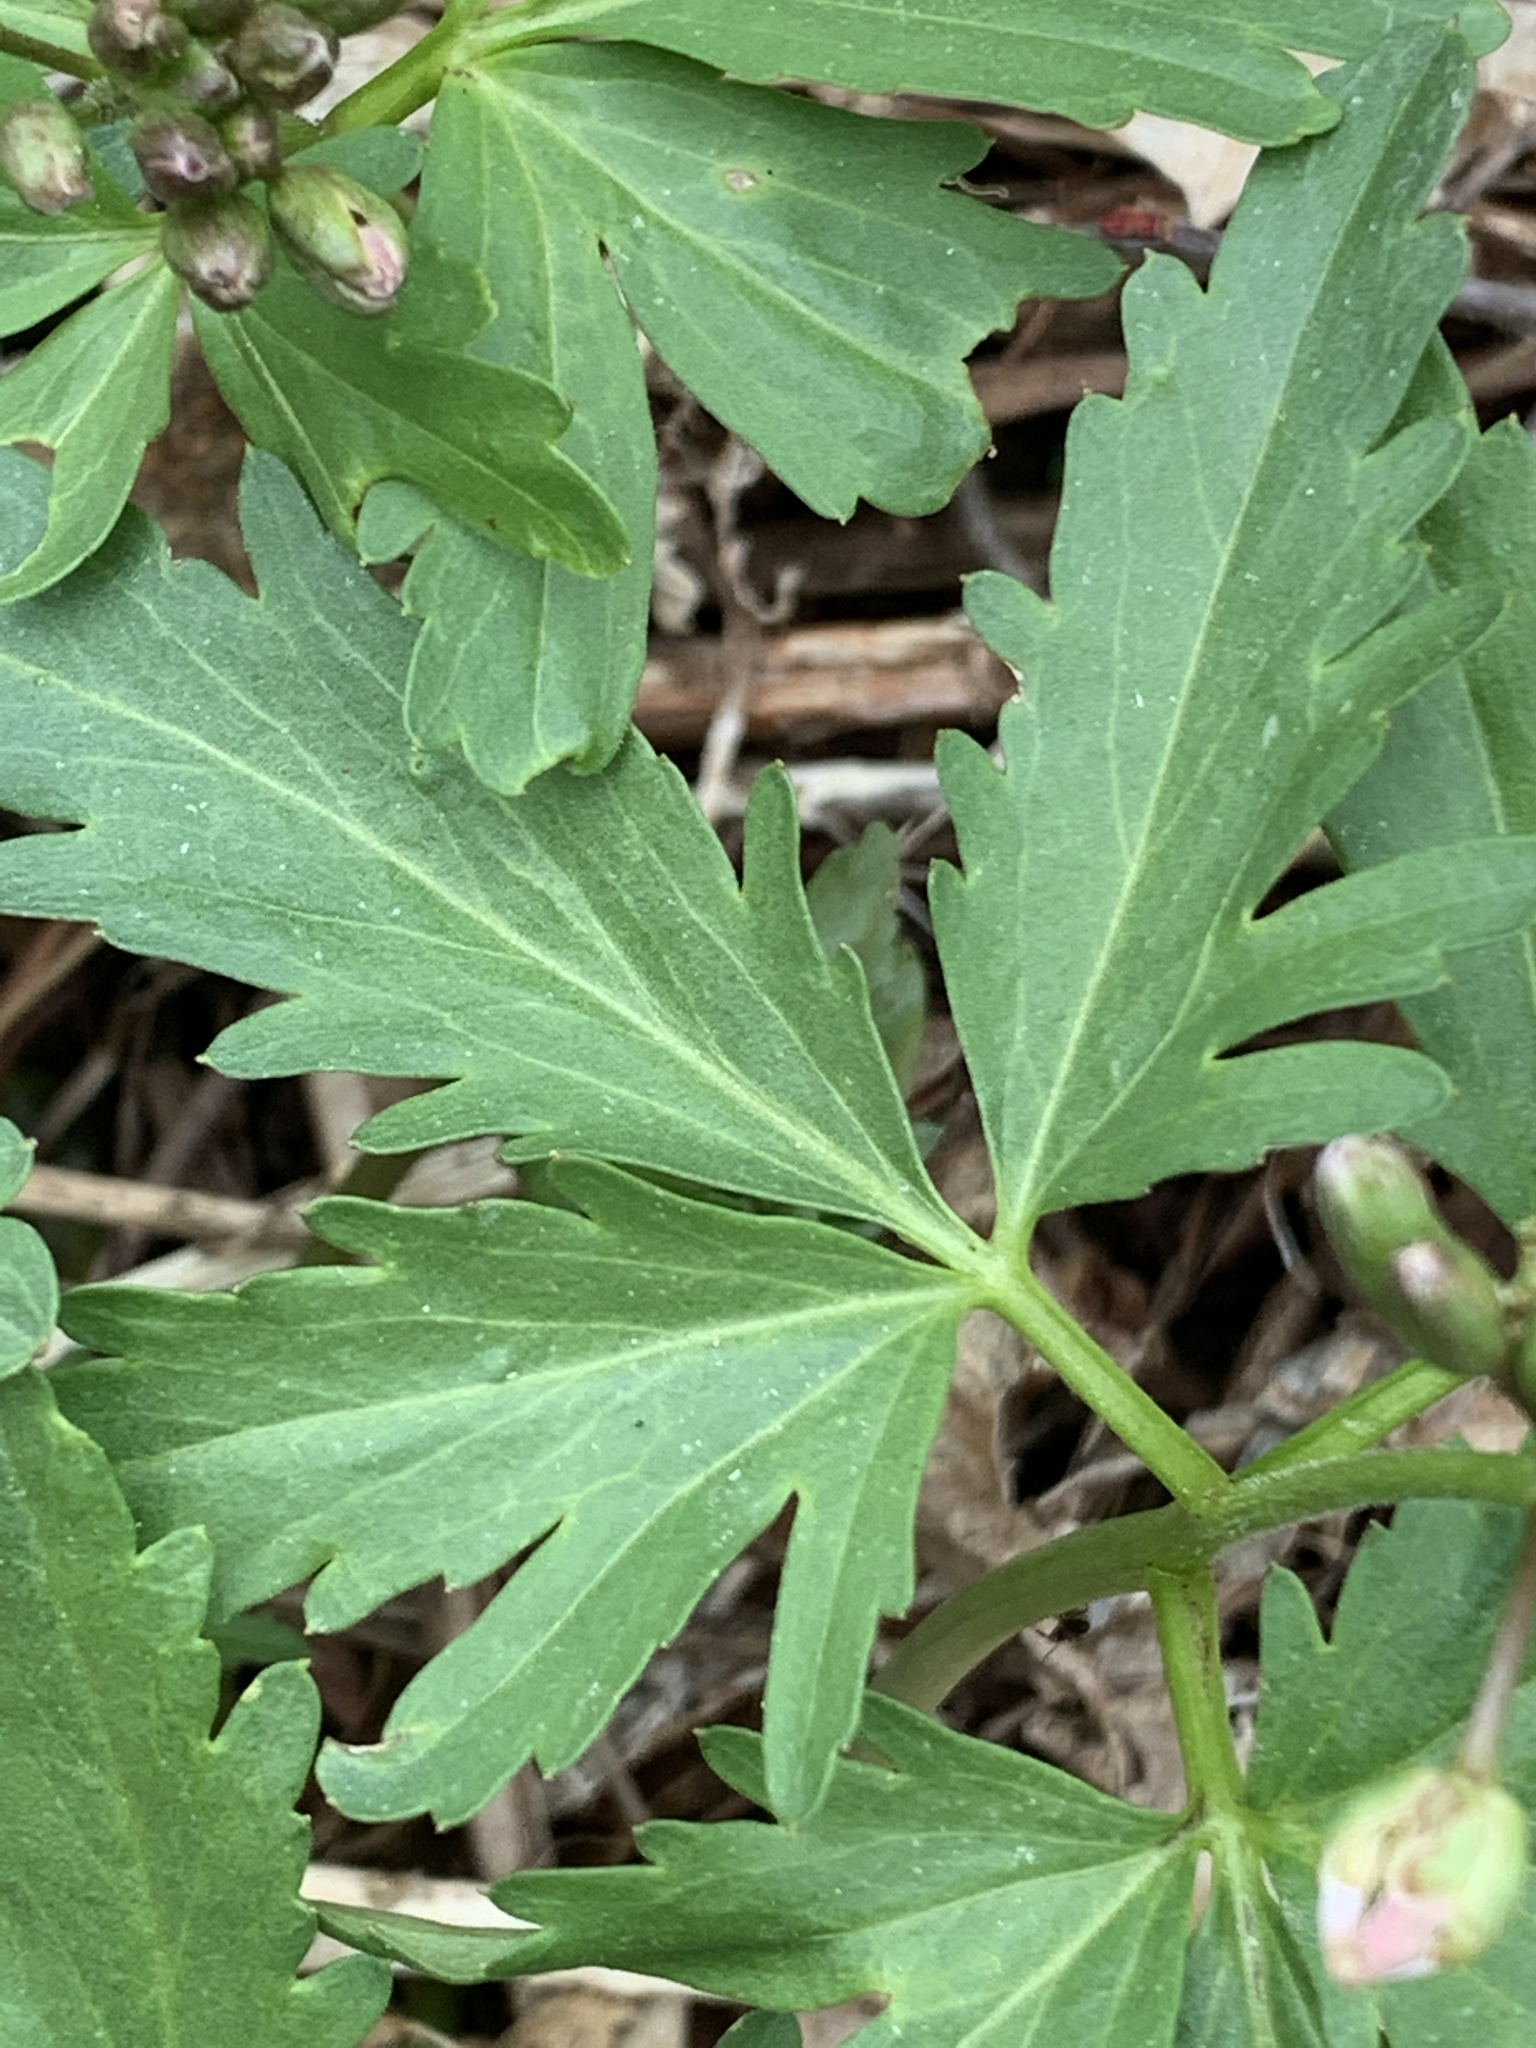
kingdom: Plantae
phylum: Tracheophyta
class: Magnoliopsida
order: Brassicales
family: Brassicaceae
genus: Cardamine
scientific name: Cardamine concatenata
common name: Cut-leaf toothcup
